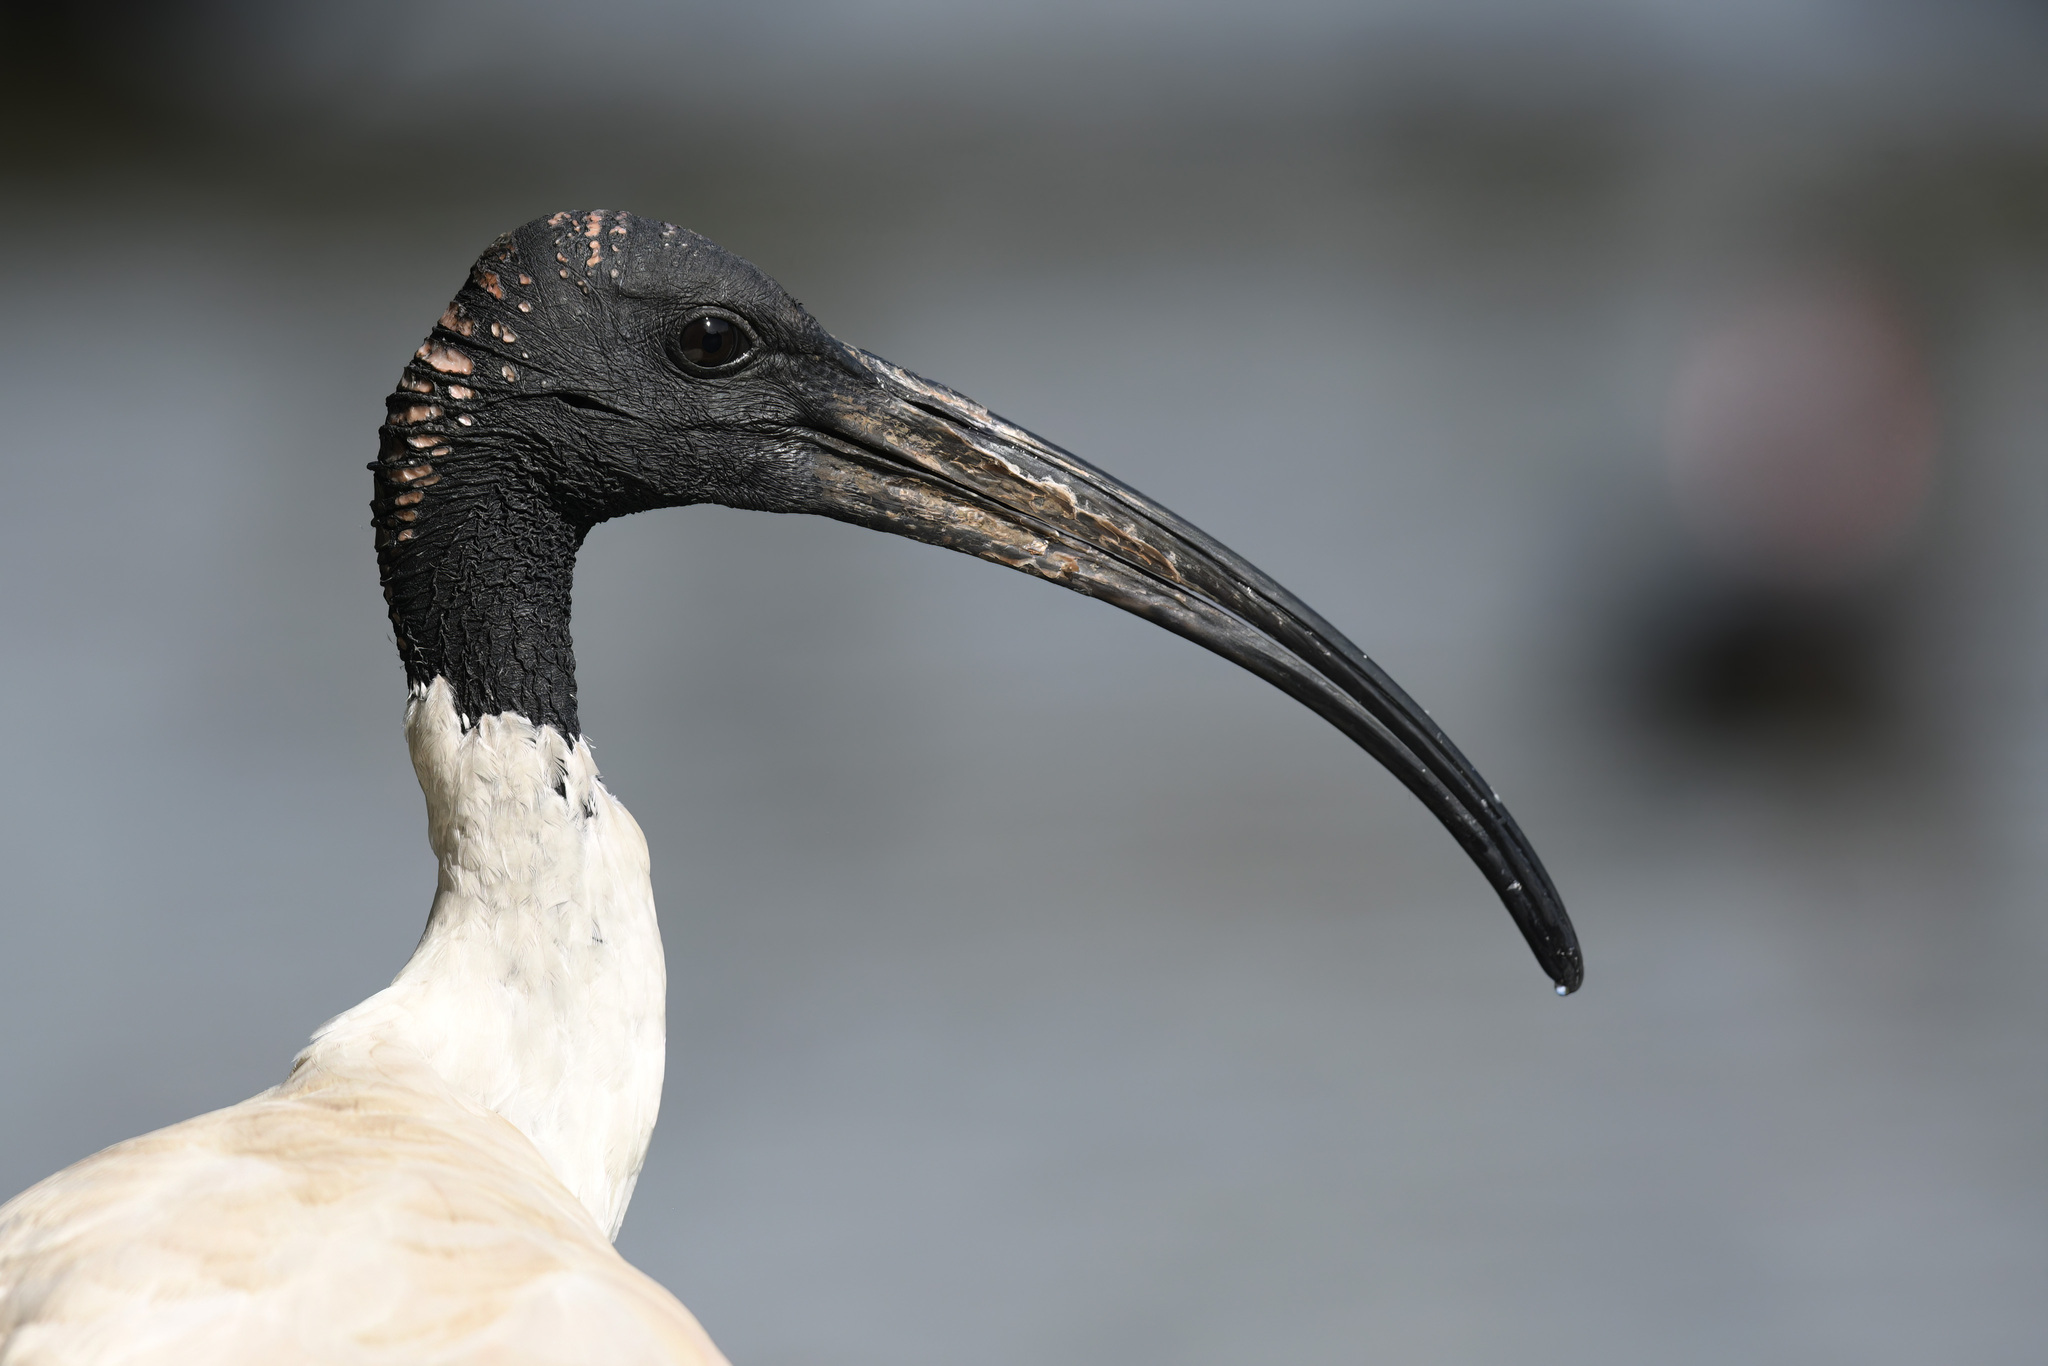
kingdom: Animalia
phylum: Chordata
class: Aves
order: Pelecaniformes
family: Threskiornithidae
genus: Threskiornis
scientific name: Threskiornis molucca
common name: Australian white ibis
